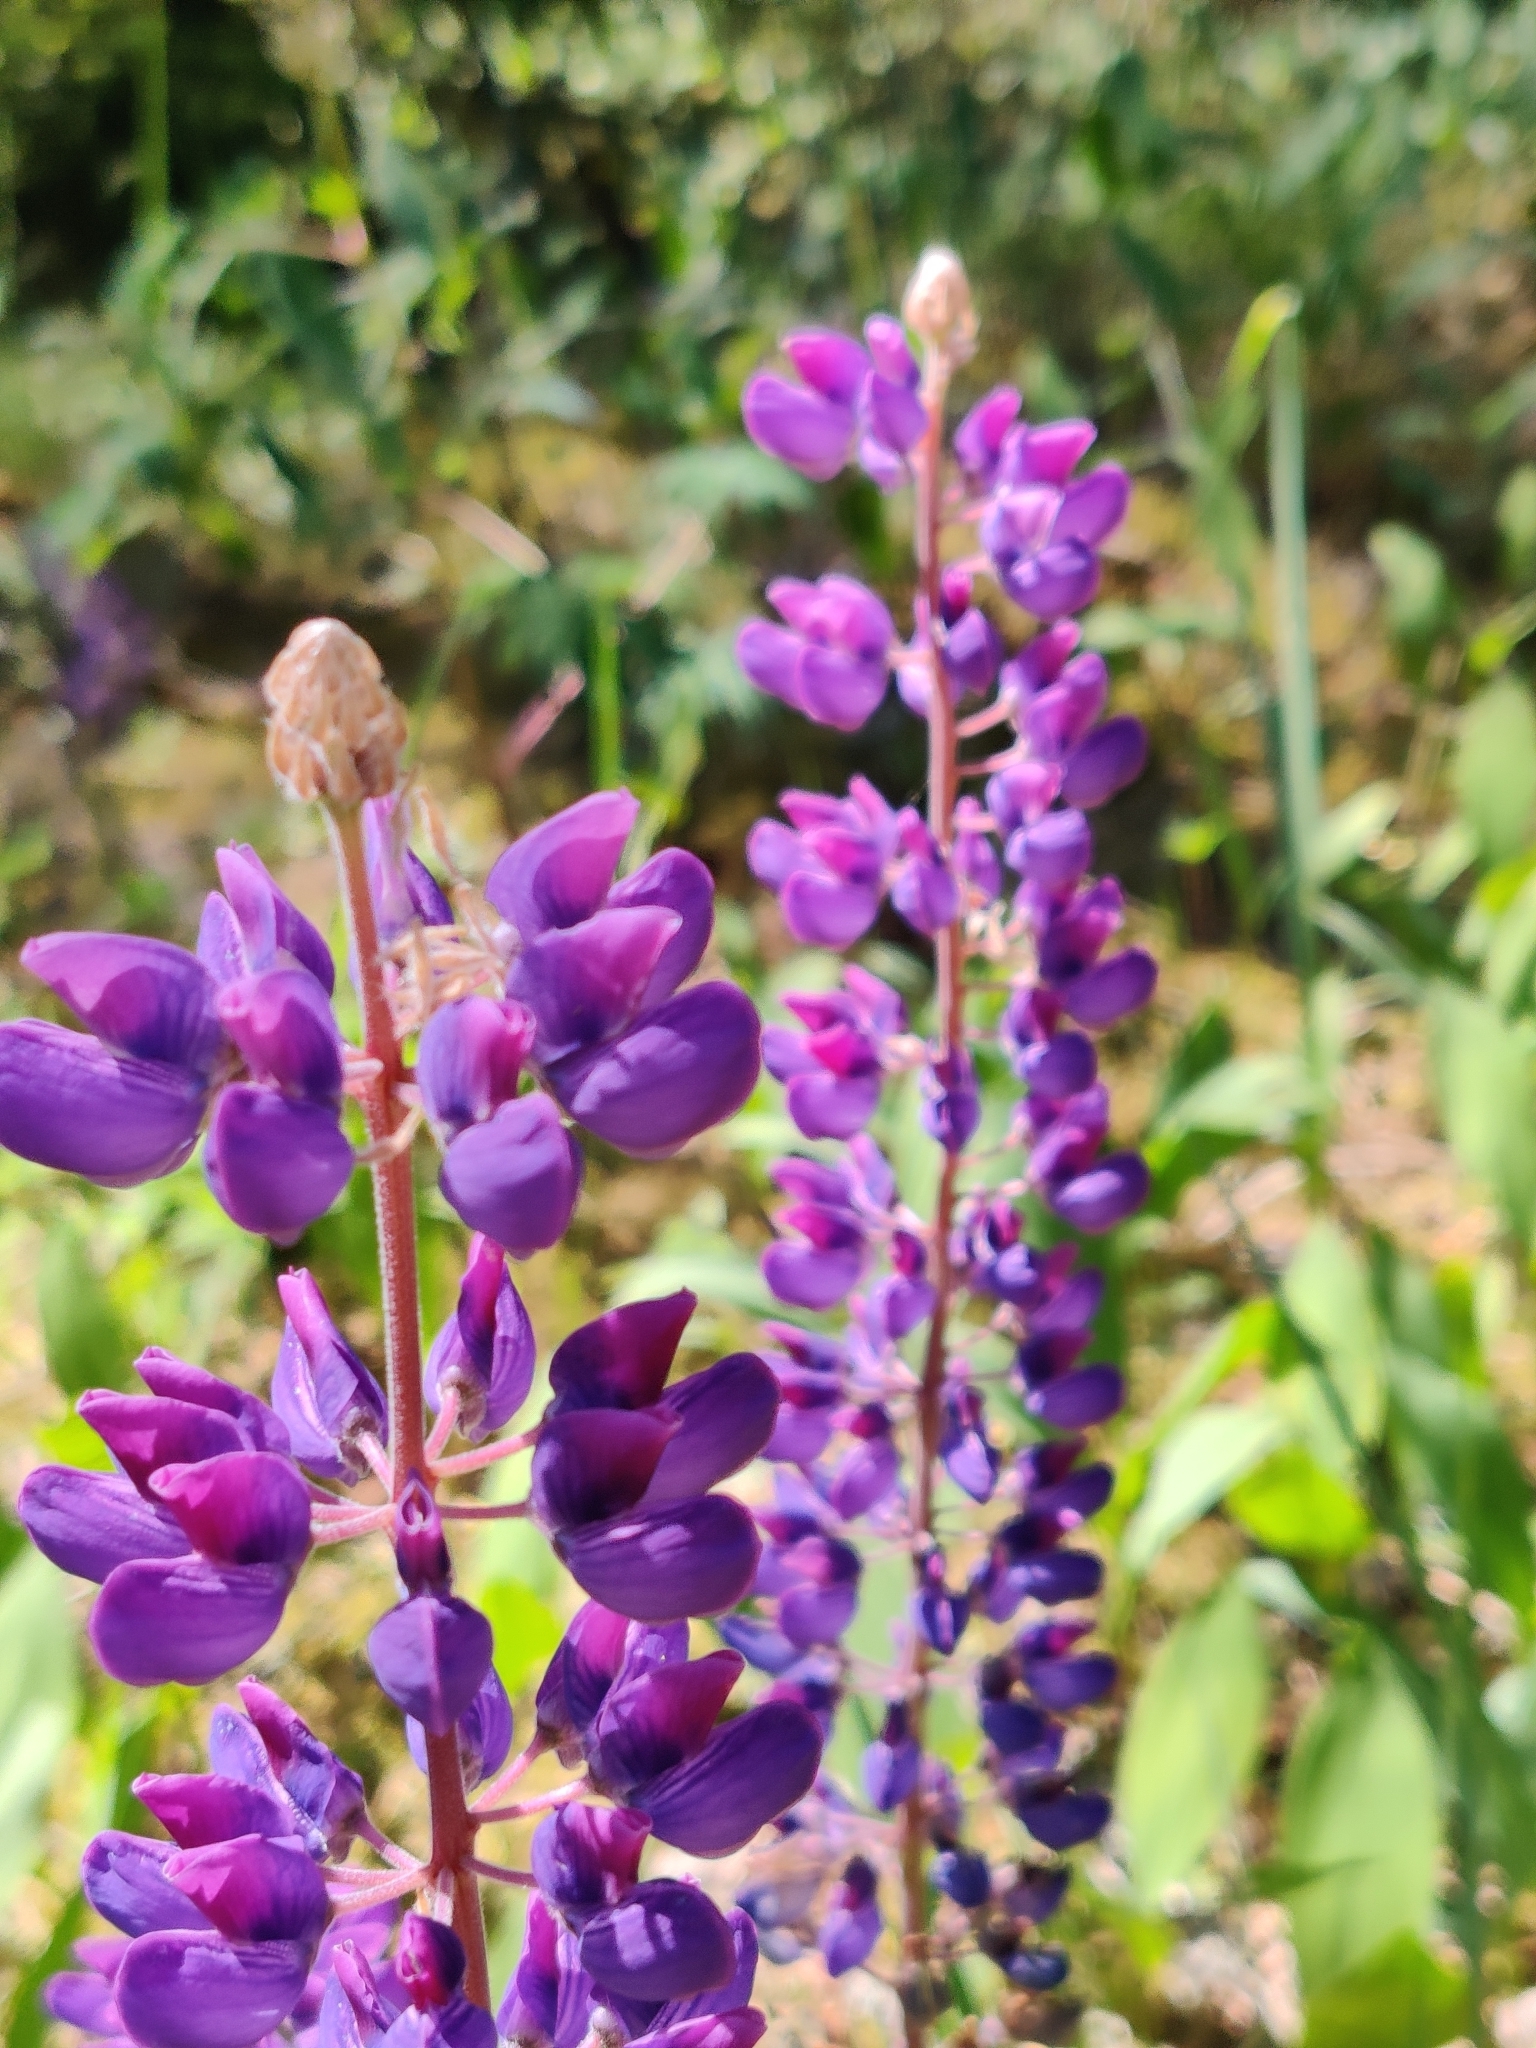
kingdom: Plantae
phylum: Tracheophyta
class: Magnoliopsida
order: Fabales
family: Fabaceae
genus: Lupinus
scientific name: Lupinus polyphyllus
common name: Garden lupin
